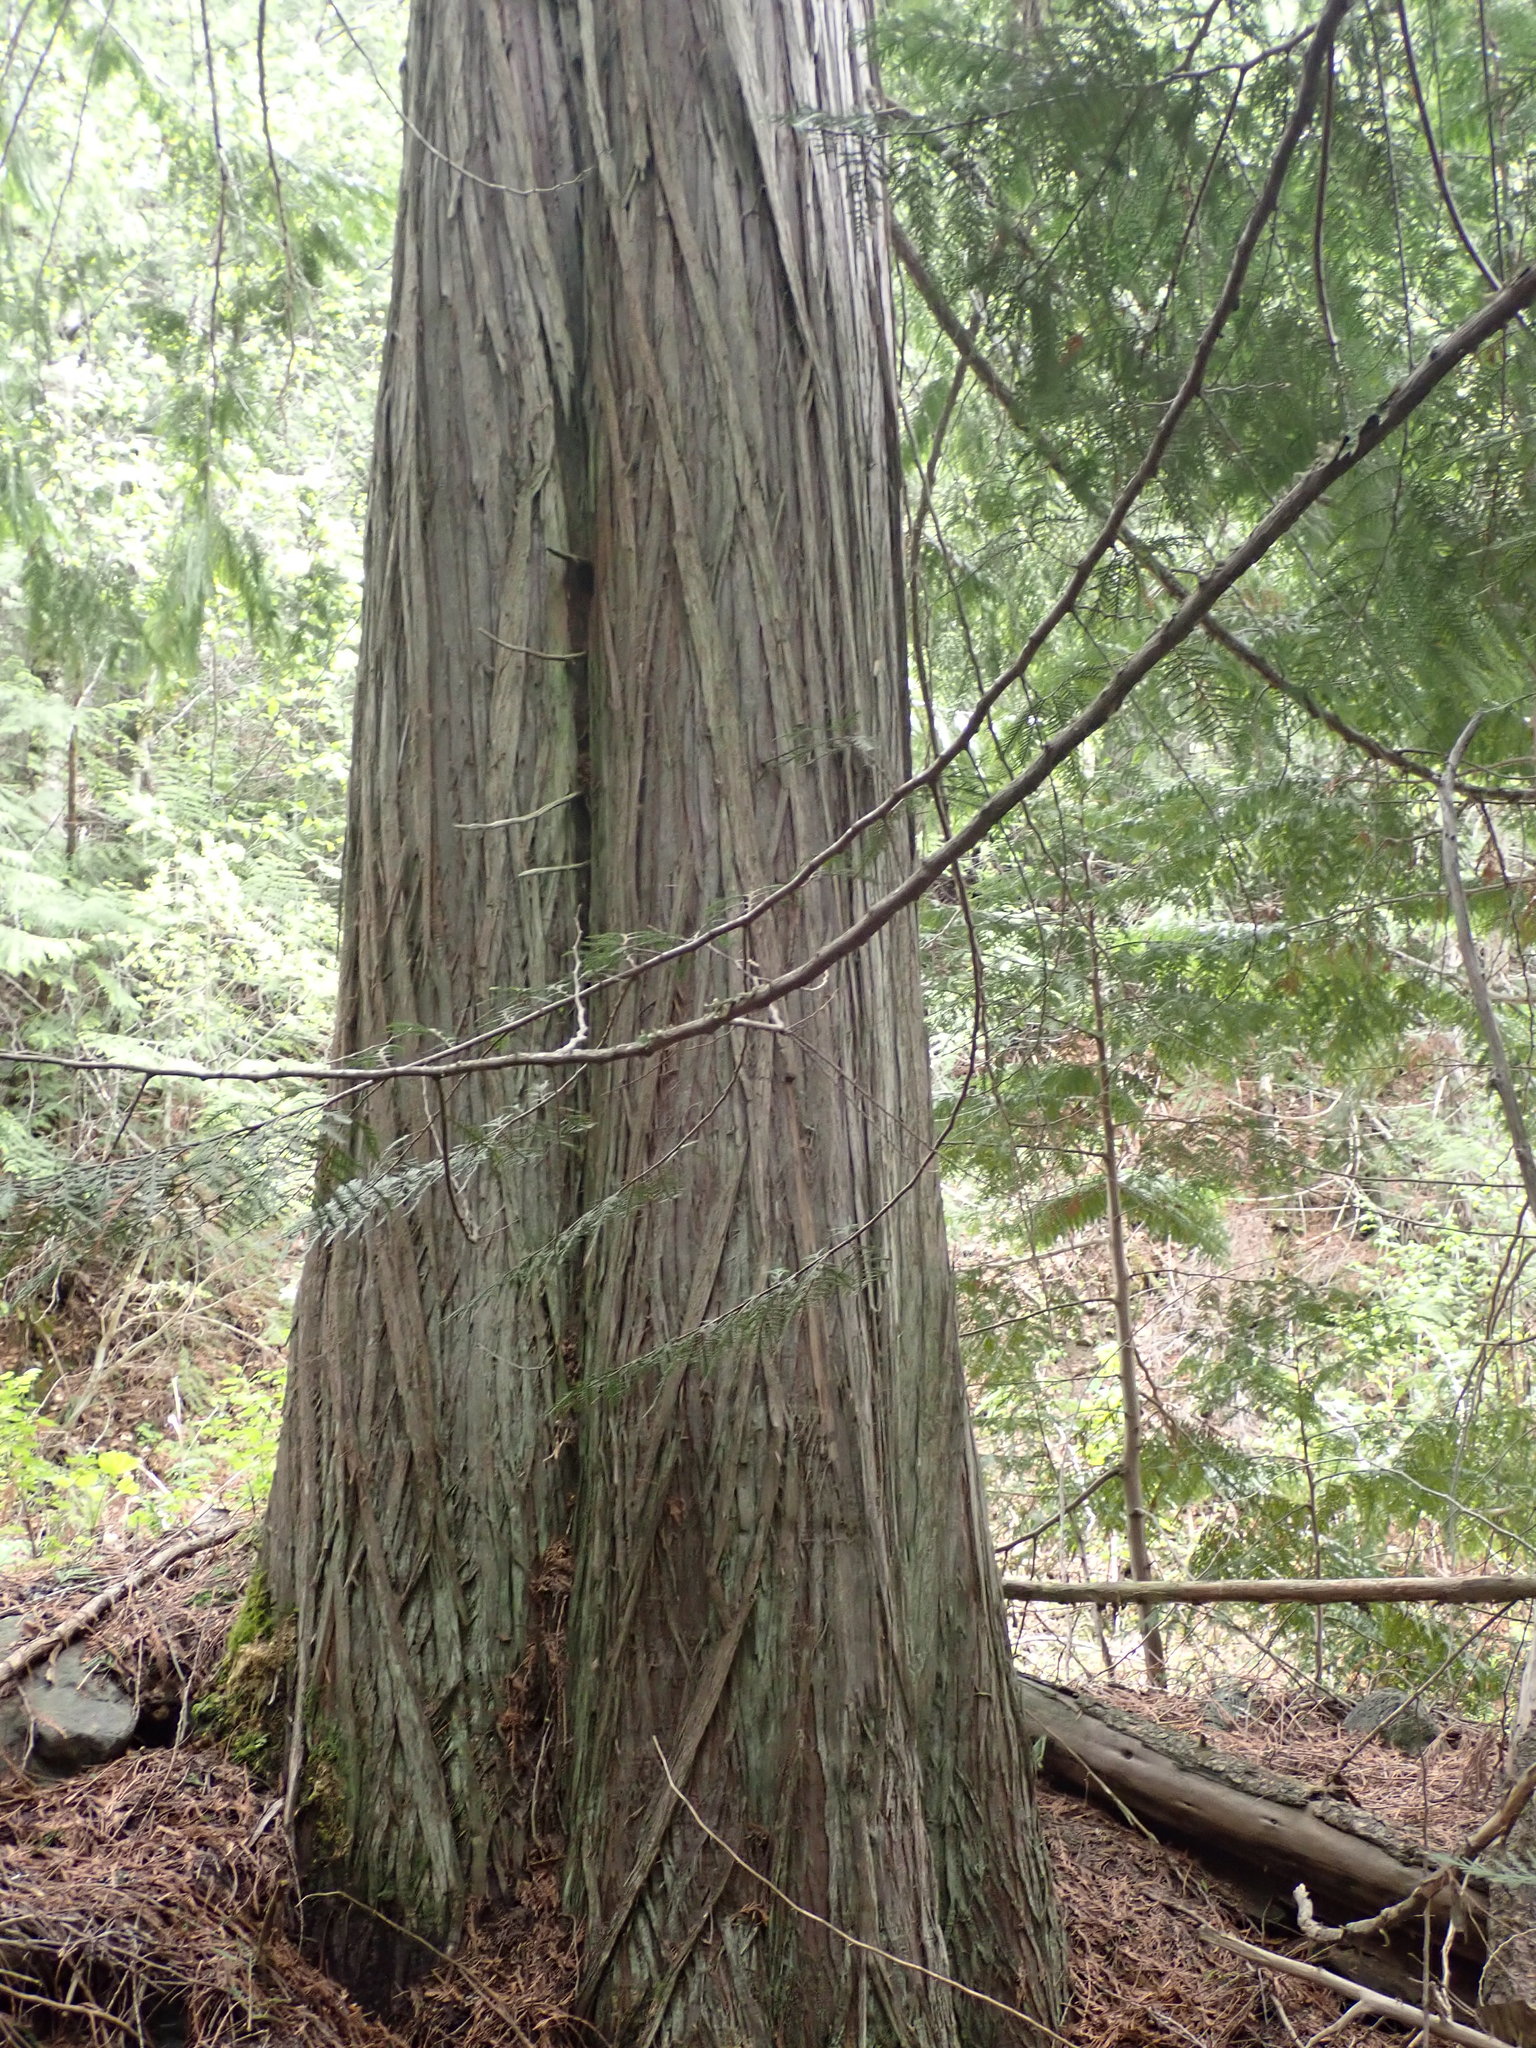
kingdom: Plantae
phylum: Tracheophyta
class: Pinopsida
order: Pinales
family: Cupressaceae
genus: Thuja
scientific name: Thuja plicata
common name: Western red-cedar
